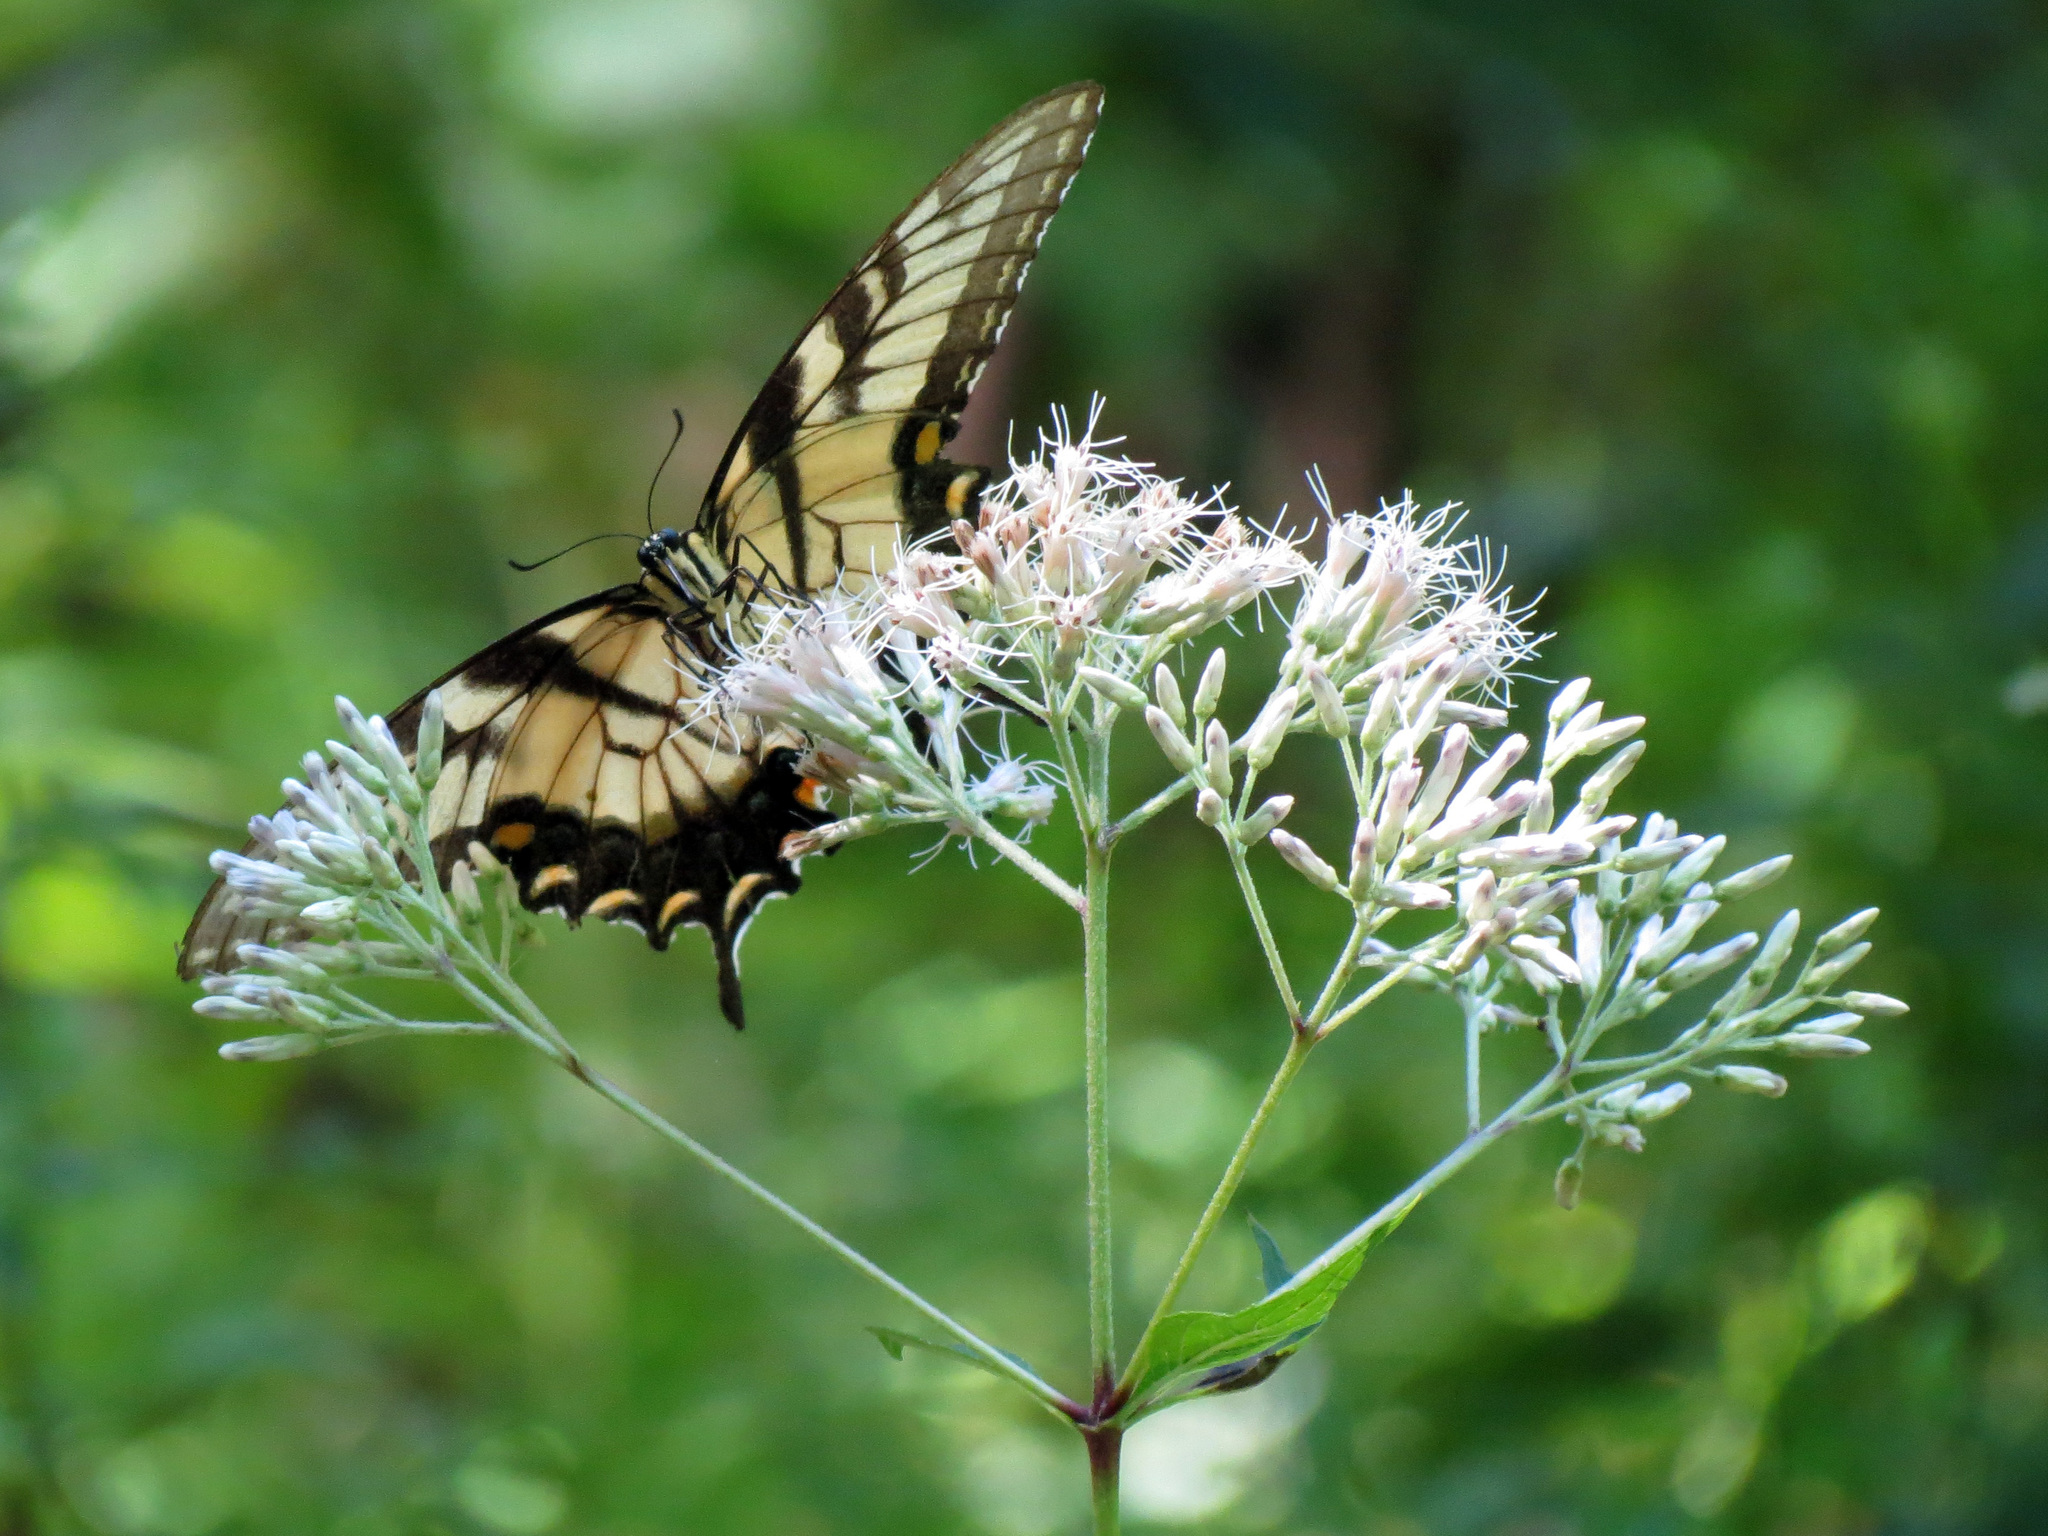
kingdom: Animalia
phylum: Arthropoda
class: Insecta
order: Lepidoptera
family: Papilionidae
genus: Papilio
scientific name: Papilio glaucus
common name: Tiger swallowtail
